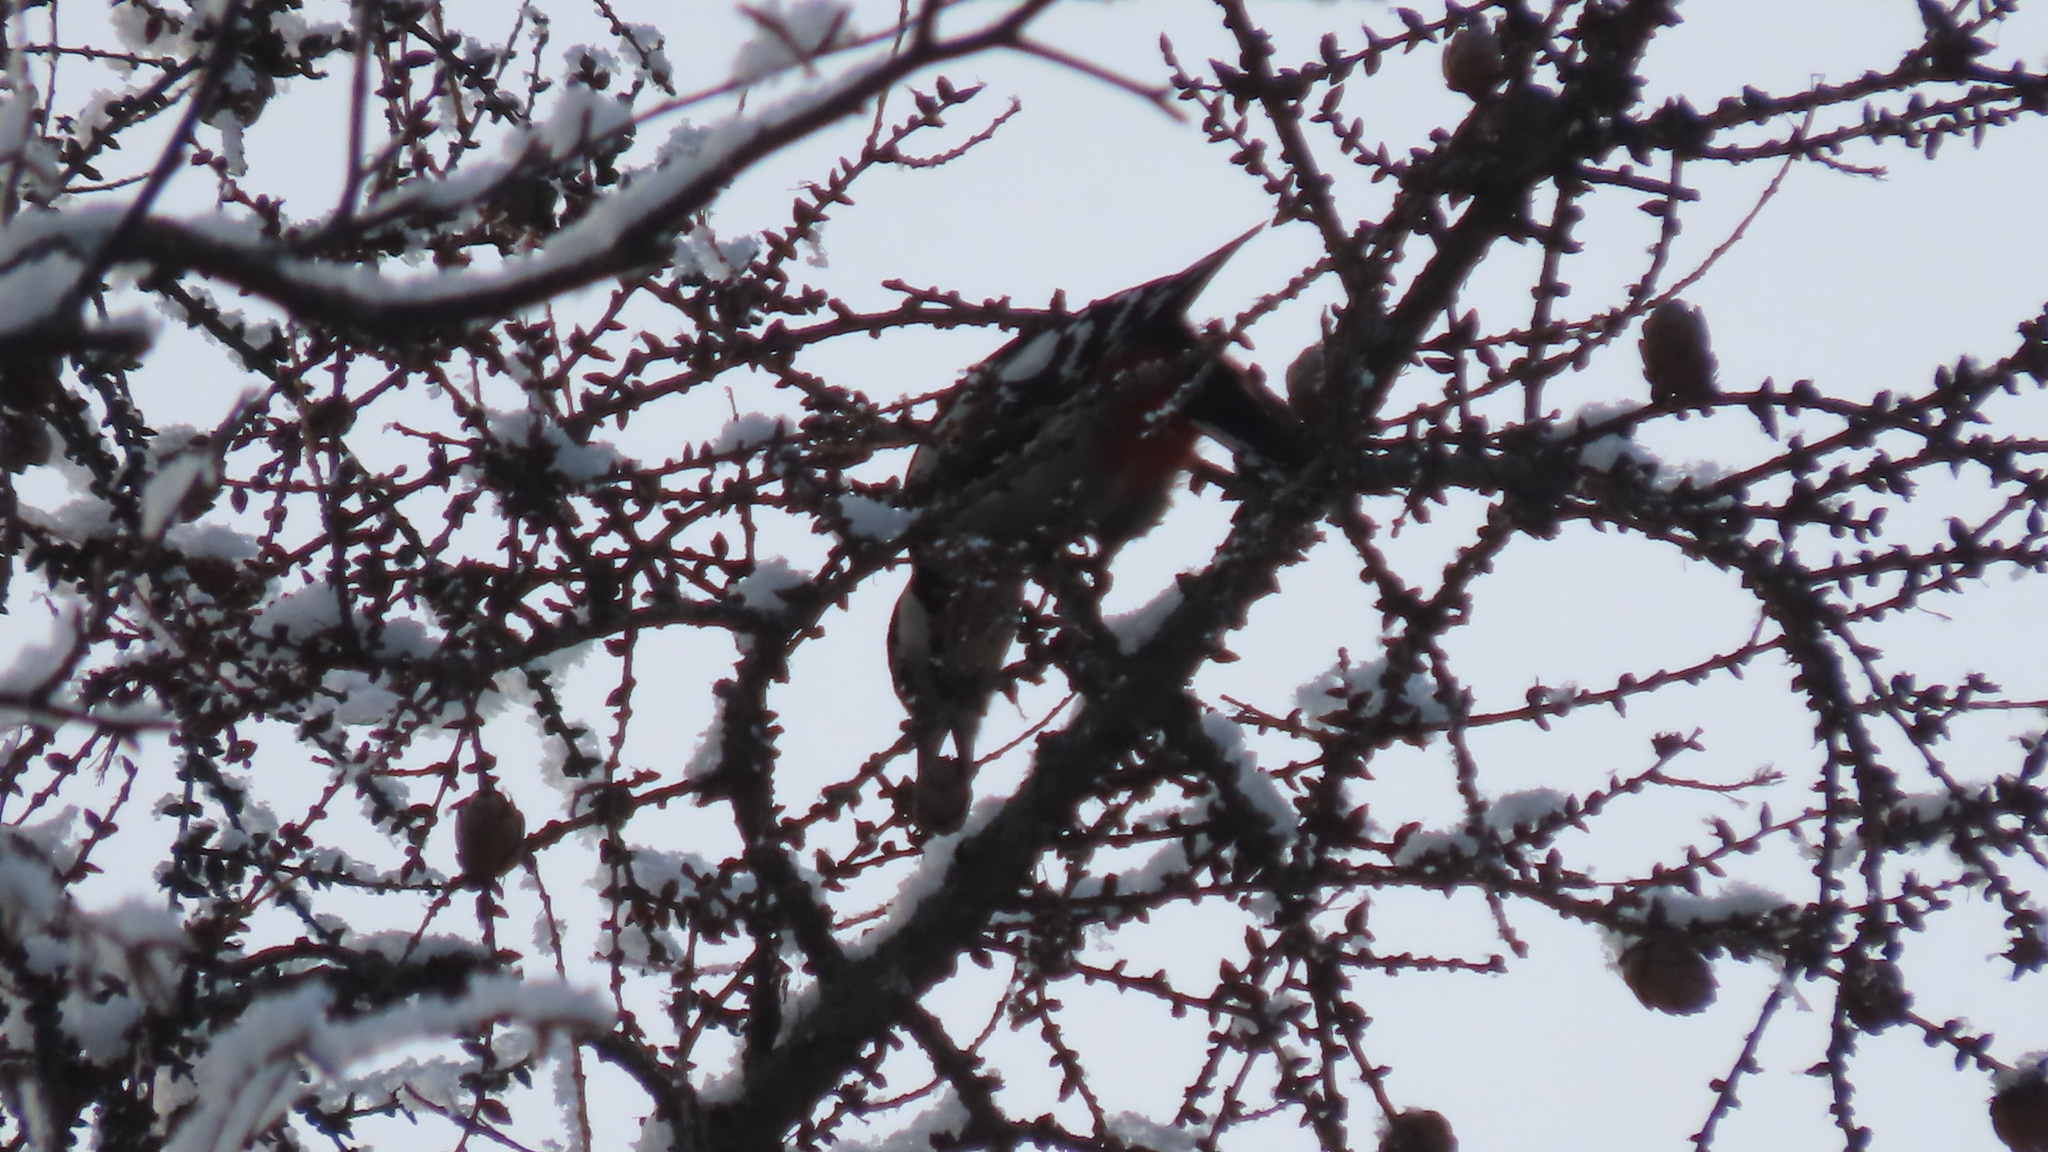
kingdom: Animalia
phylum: Chordata
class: Aves
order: Piciformes
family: Picidae
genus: Dendrocopos
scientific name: Dendrocopos major
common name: Great spotted woodpecker
